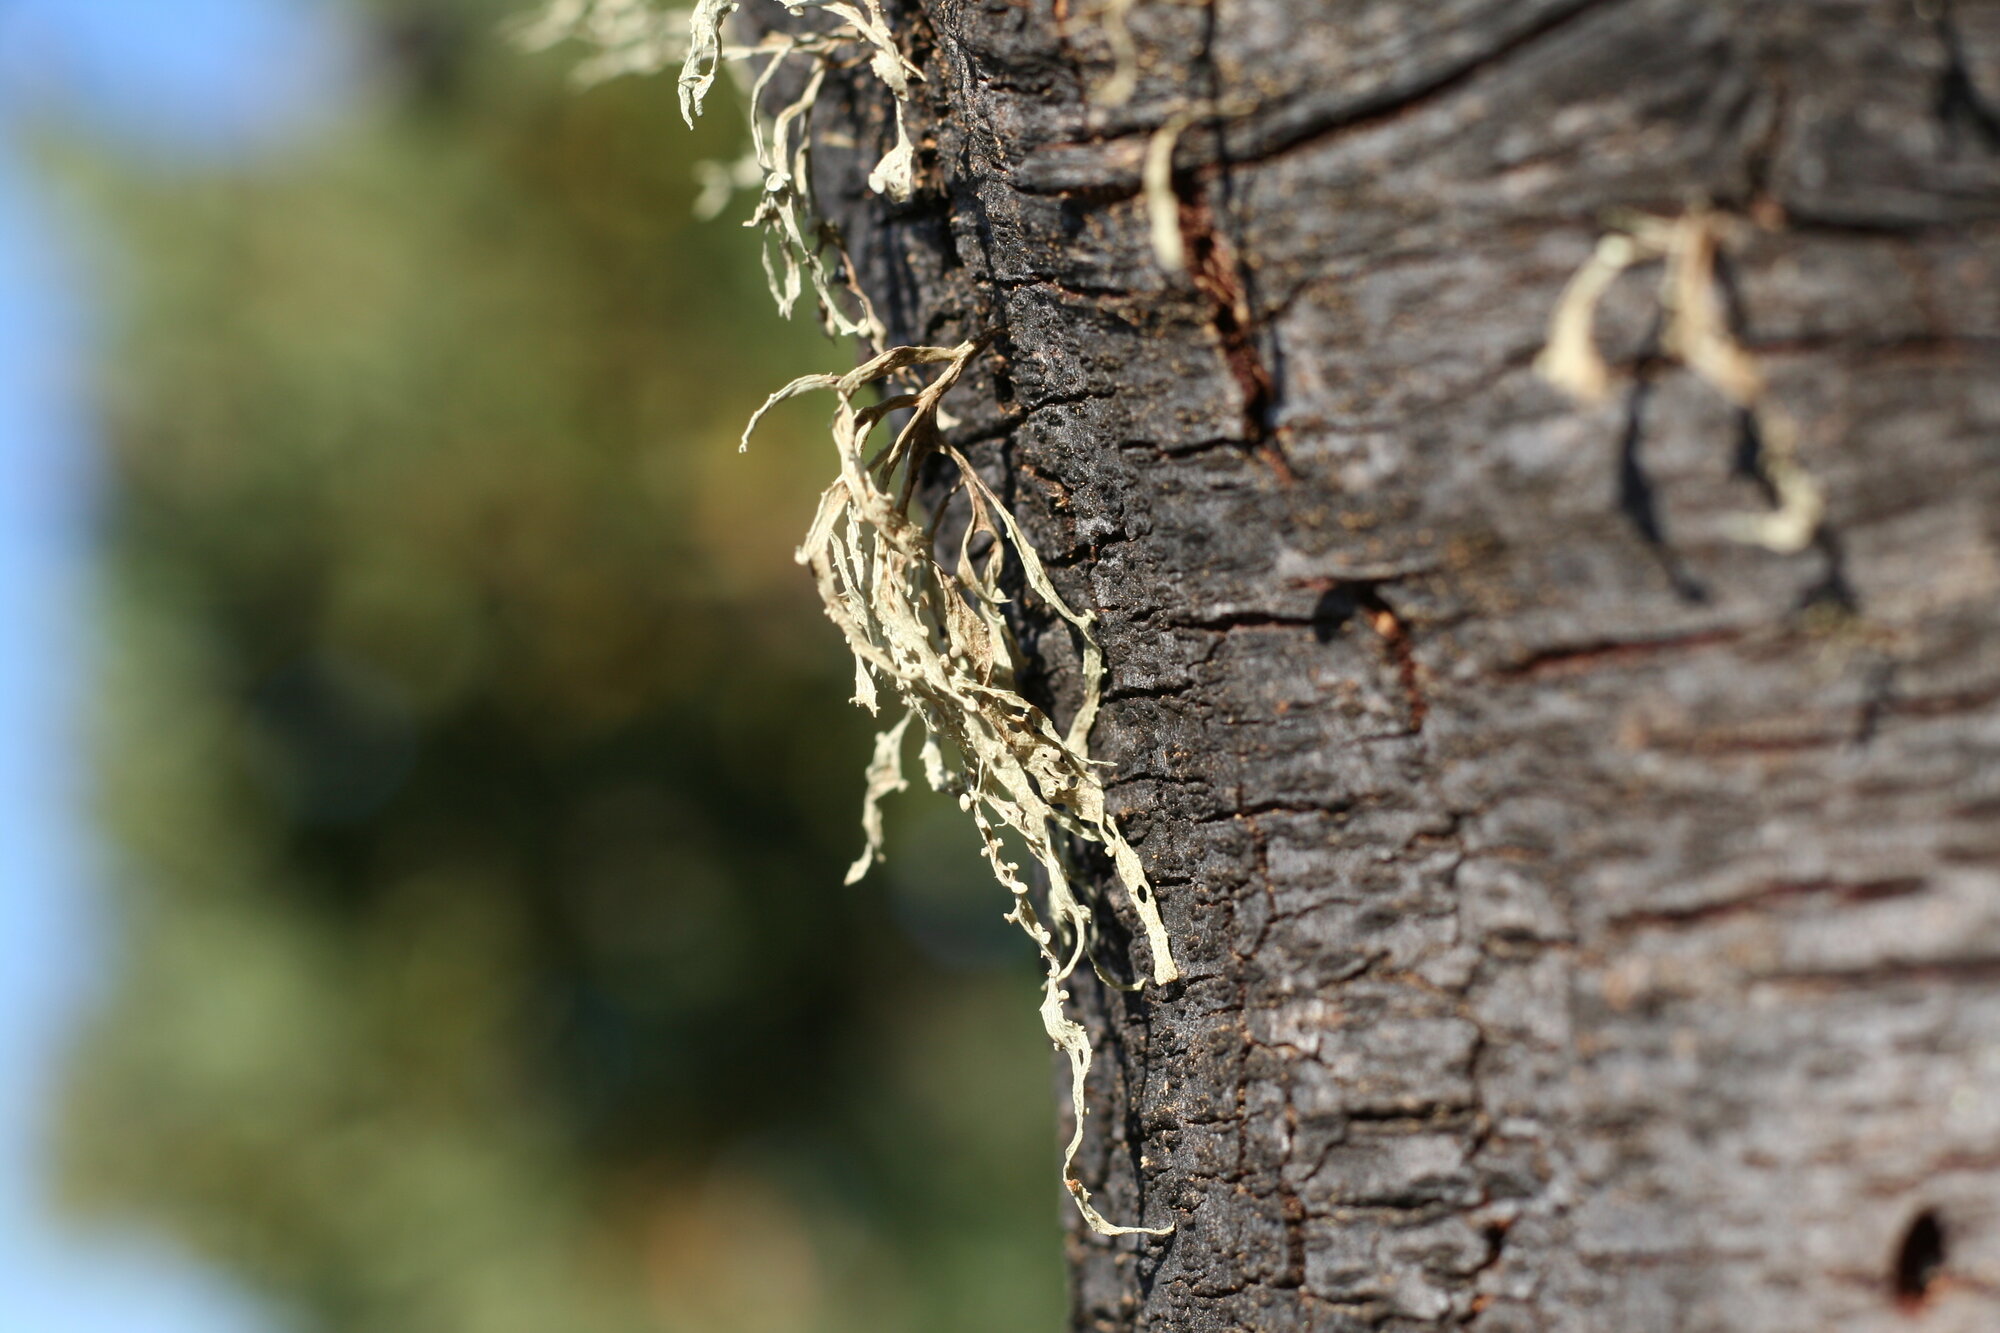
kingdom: Fungi
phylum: Ascomycota
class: Lecanoromycetes
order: Lecanorales
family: Ramalinaceae
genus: Ramalina
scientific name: Ramalina celastri
